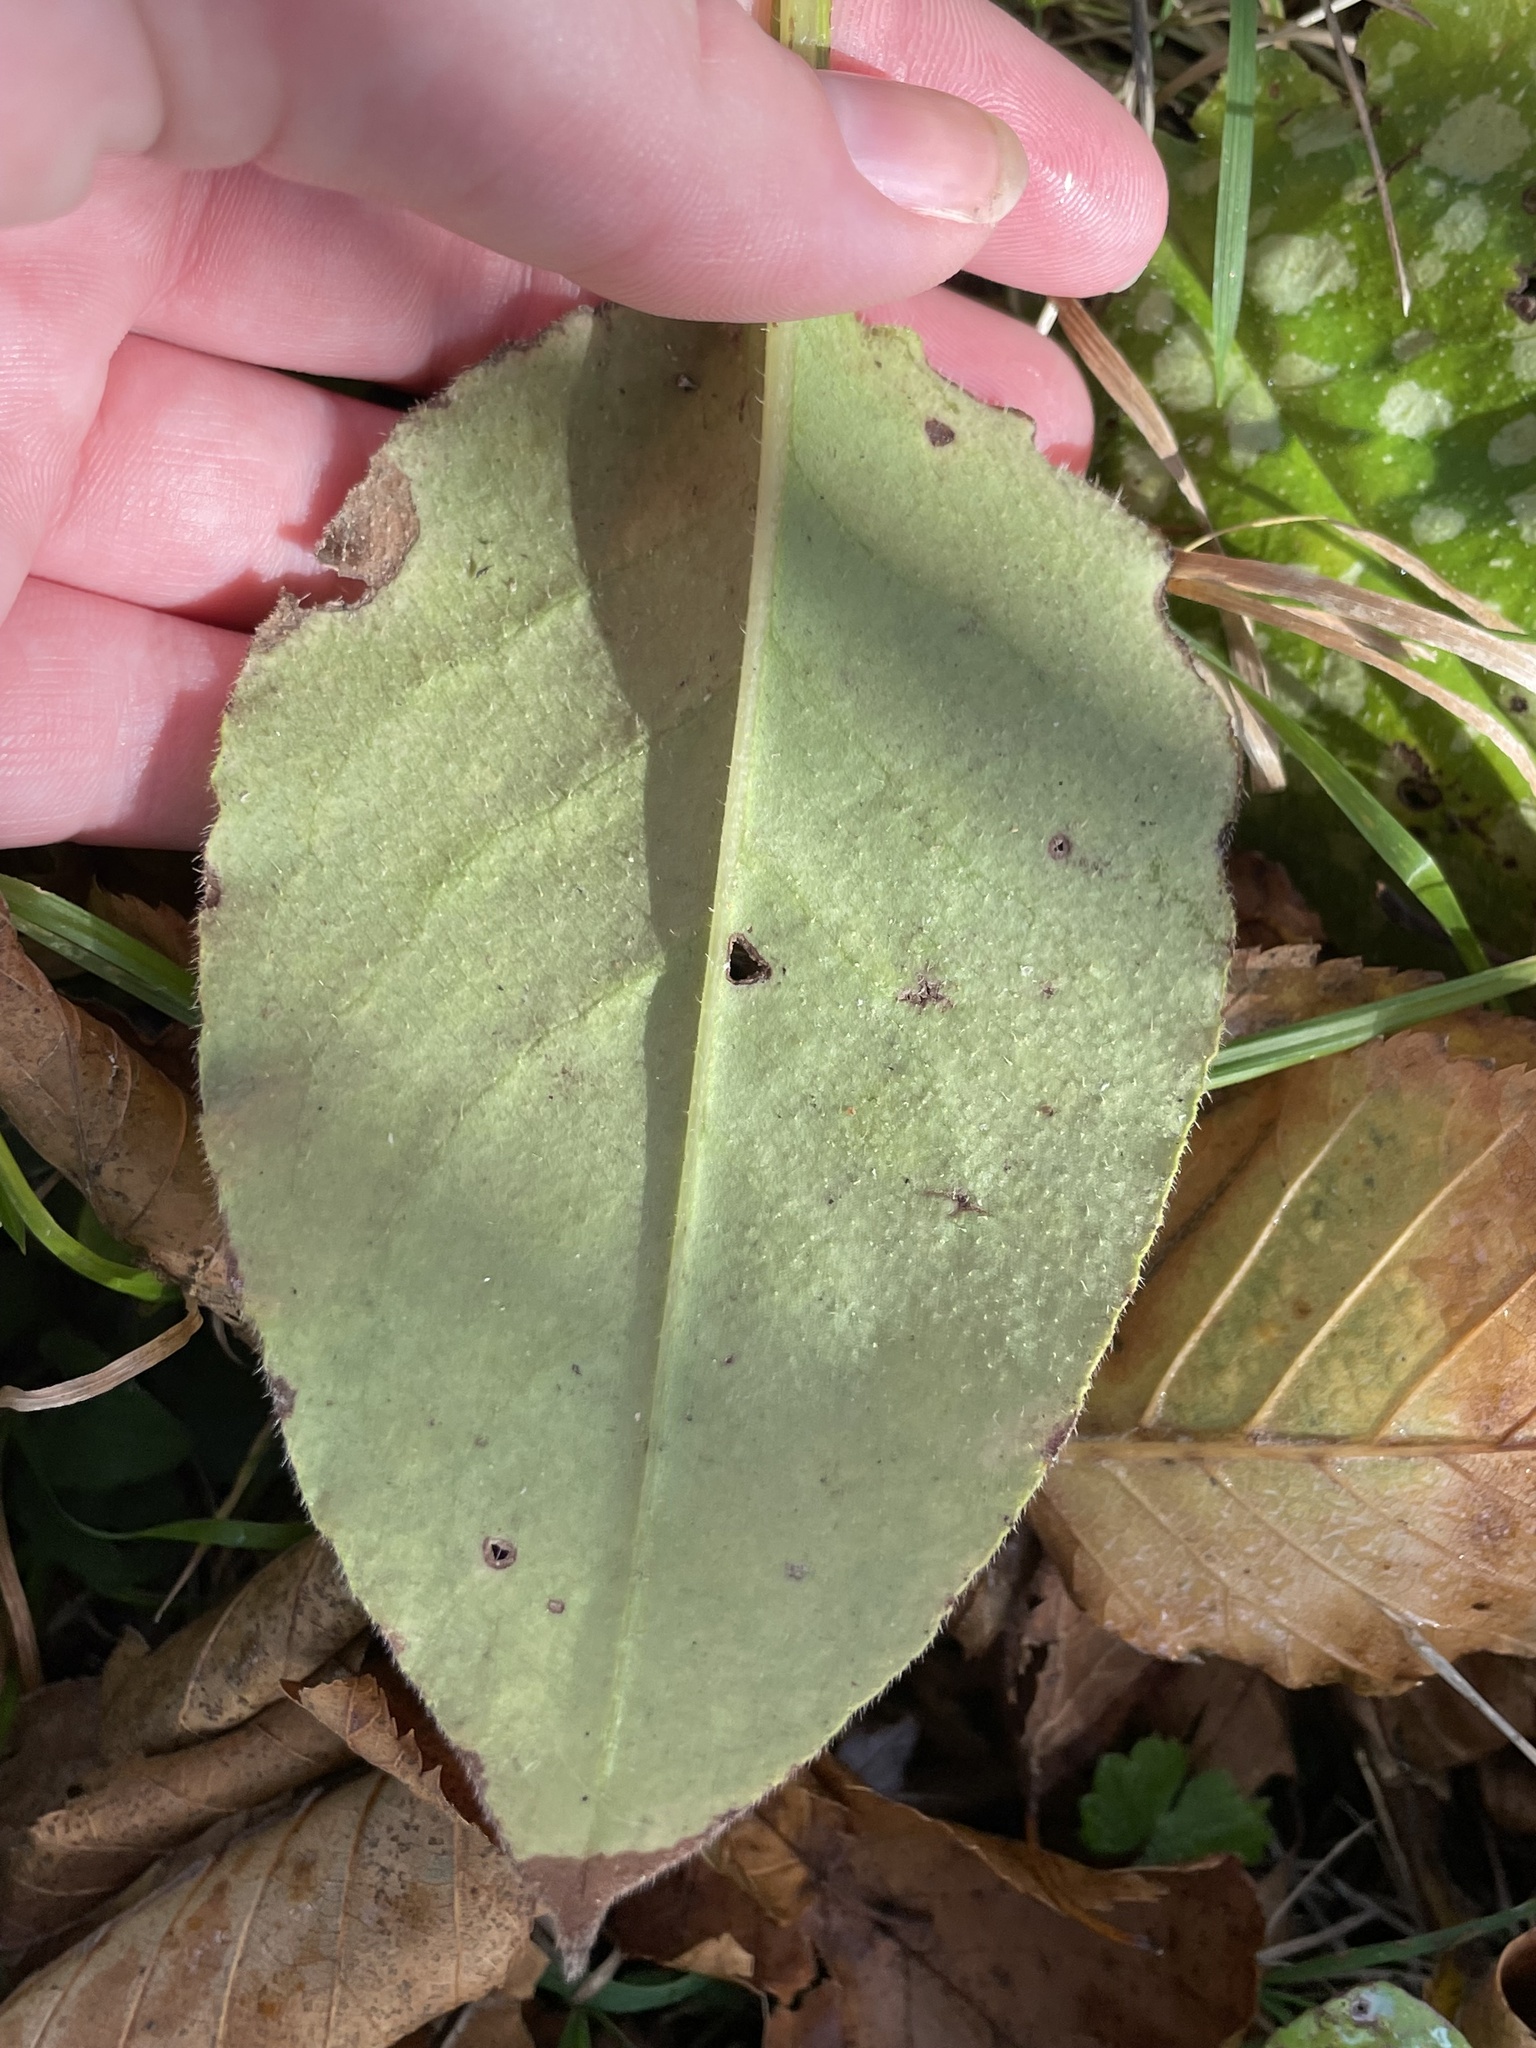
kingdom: Plantae
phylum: Tracheophyta
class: Magnoliopsida
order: Boraginales
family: Boraginaceae
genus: Pulmonaria
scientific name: Pulmonaria officinalis
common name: Lungwort
